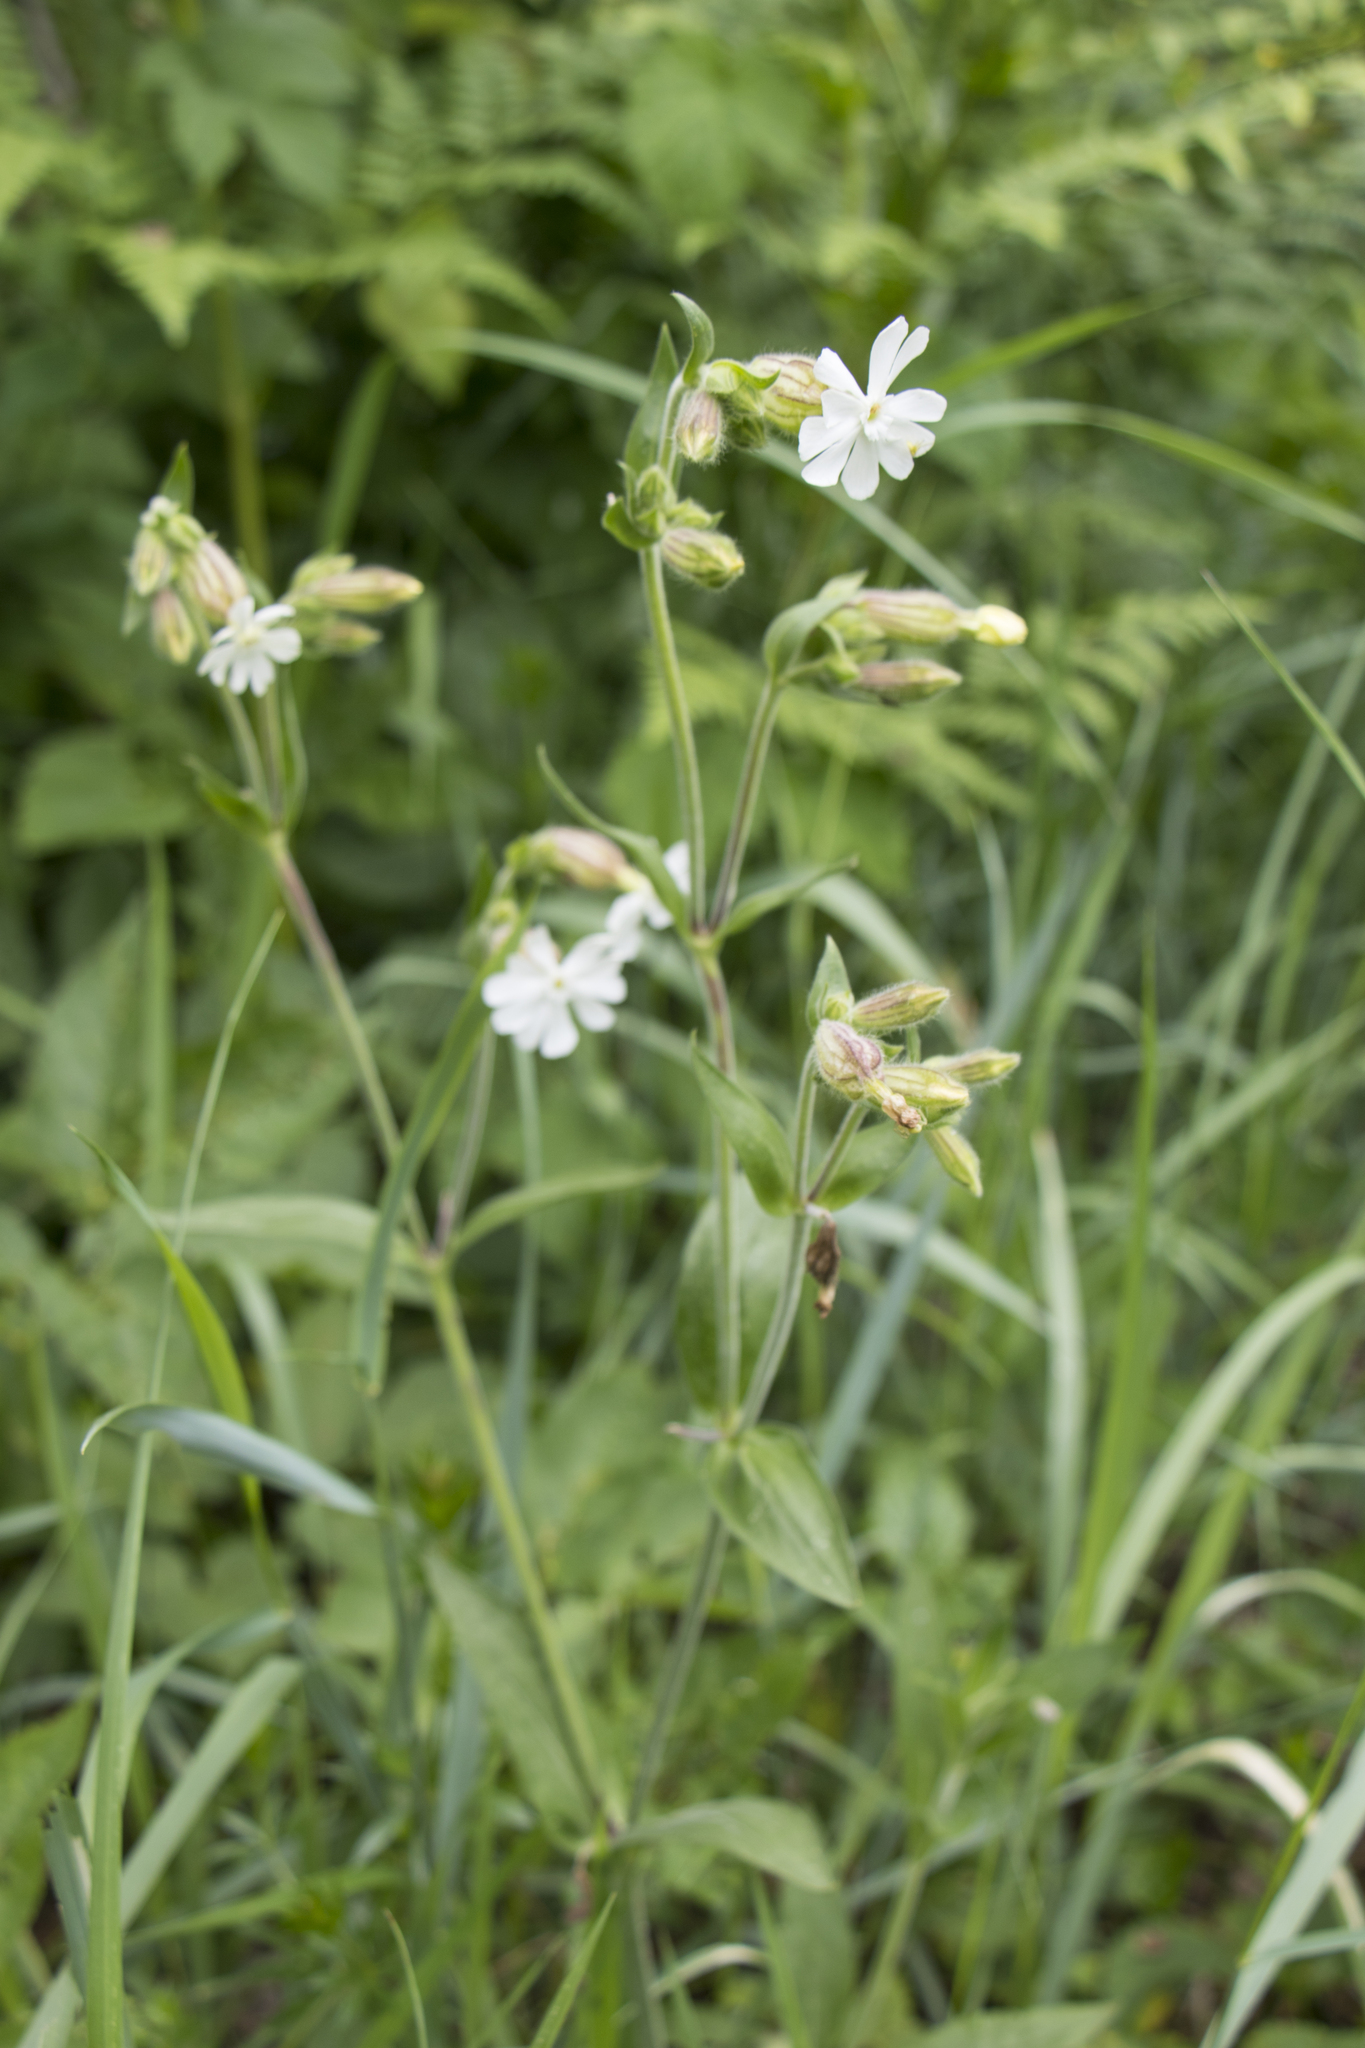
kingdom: Plantae
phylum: Tracheophyta
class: Magnoliopsida
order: Caryophyllales
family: Caryophyllaceae
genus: Silene
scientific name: Silene latifolia
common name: White campion
